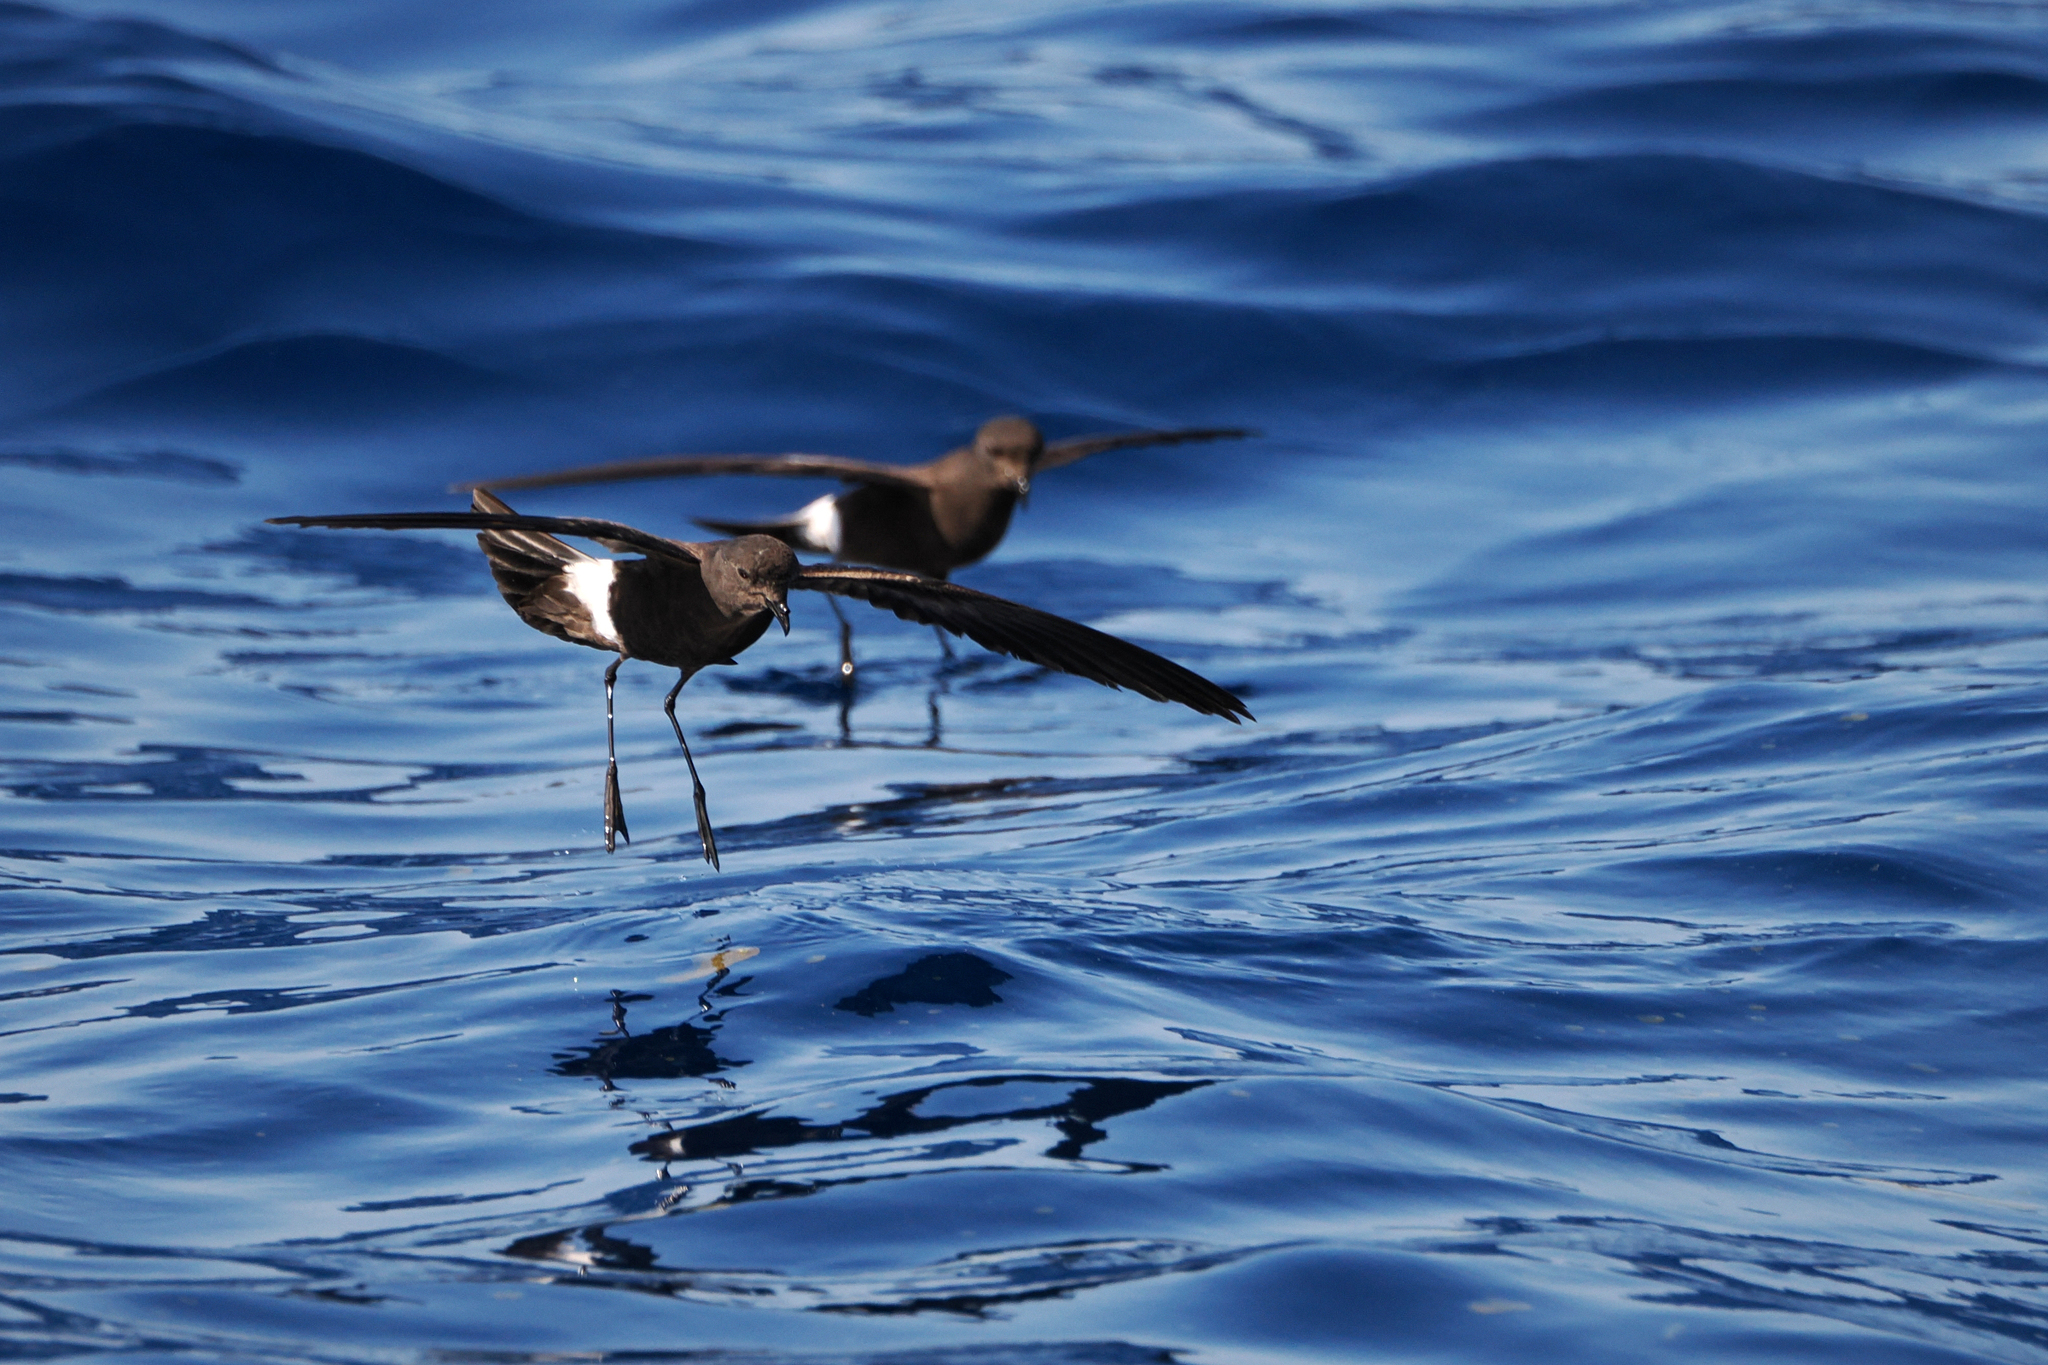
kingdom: Animalia
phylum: Chordata
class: Aves
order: Procellariiformes
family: Hydrobatidae
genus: Oceanites
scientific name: Oceanites oceanicus
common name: Wilson's storm petrel
